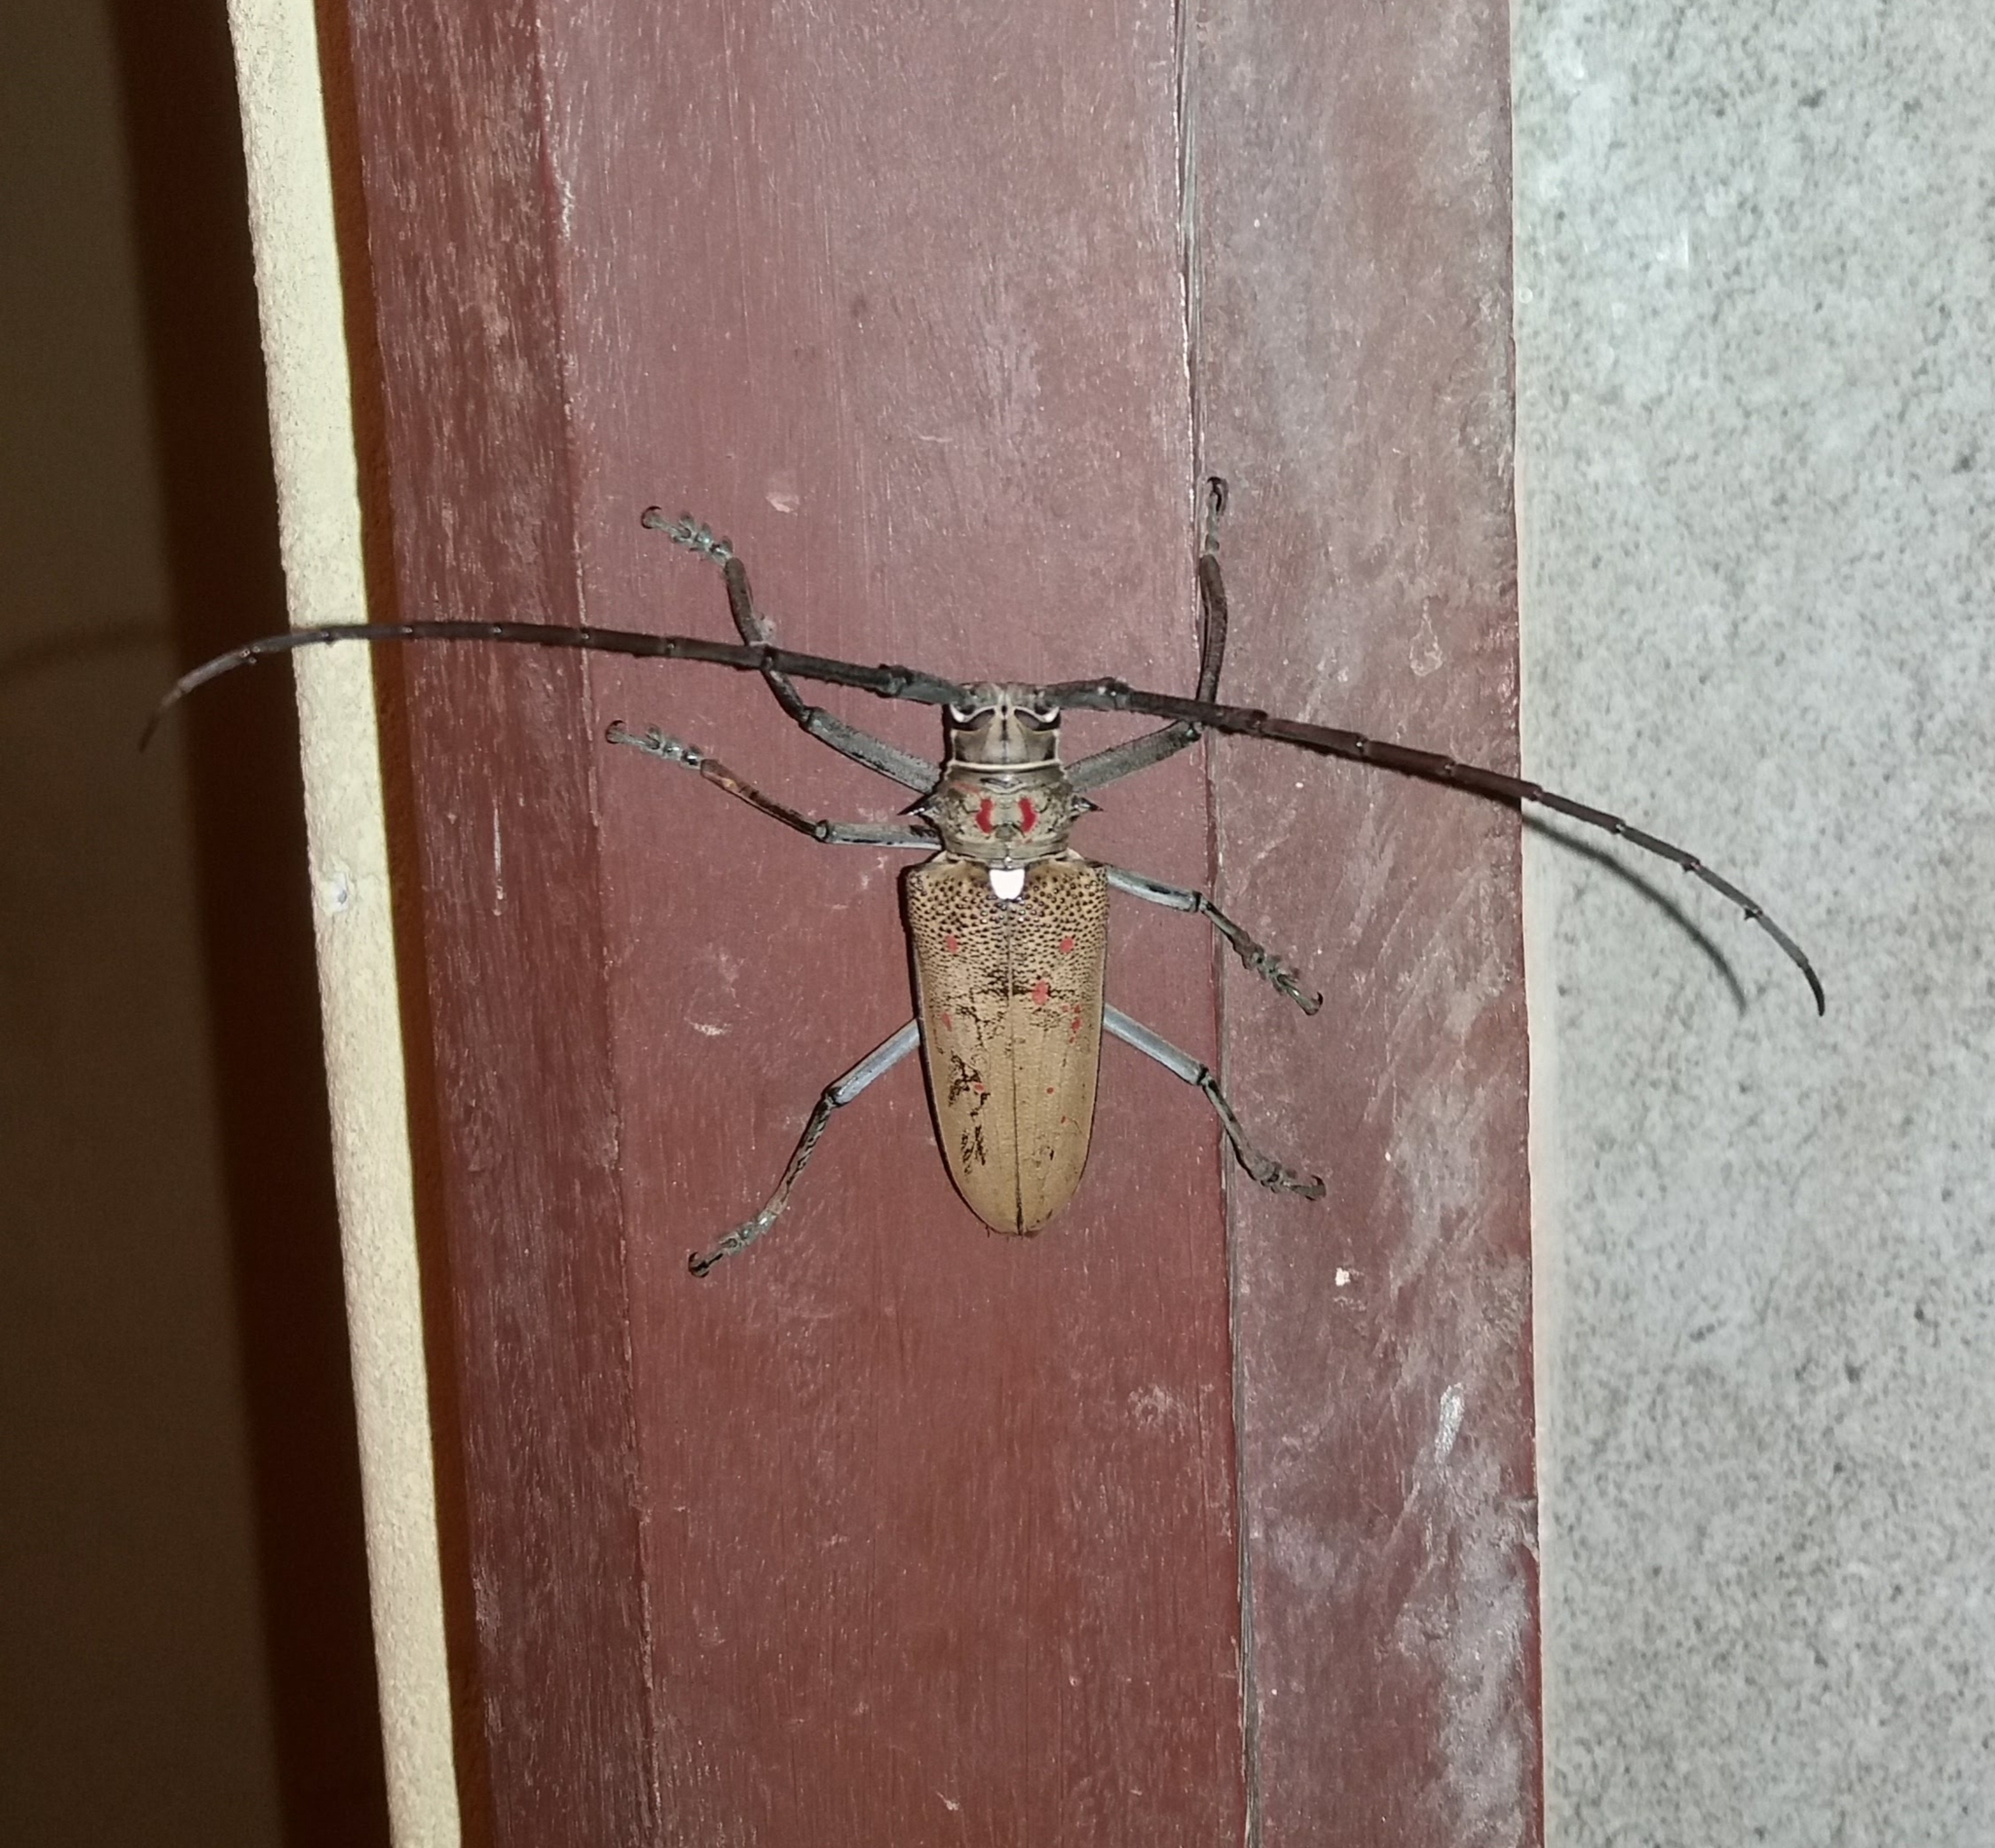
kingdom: Animalia
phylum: Arthropoda
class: Insecta
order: Coleoptera
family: Cerambycidae
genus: Batocera
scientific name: Batocera rufomaculata
